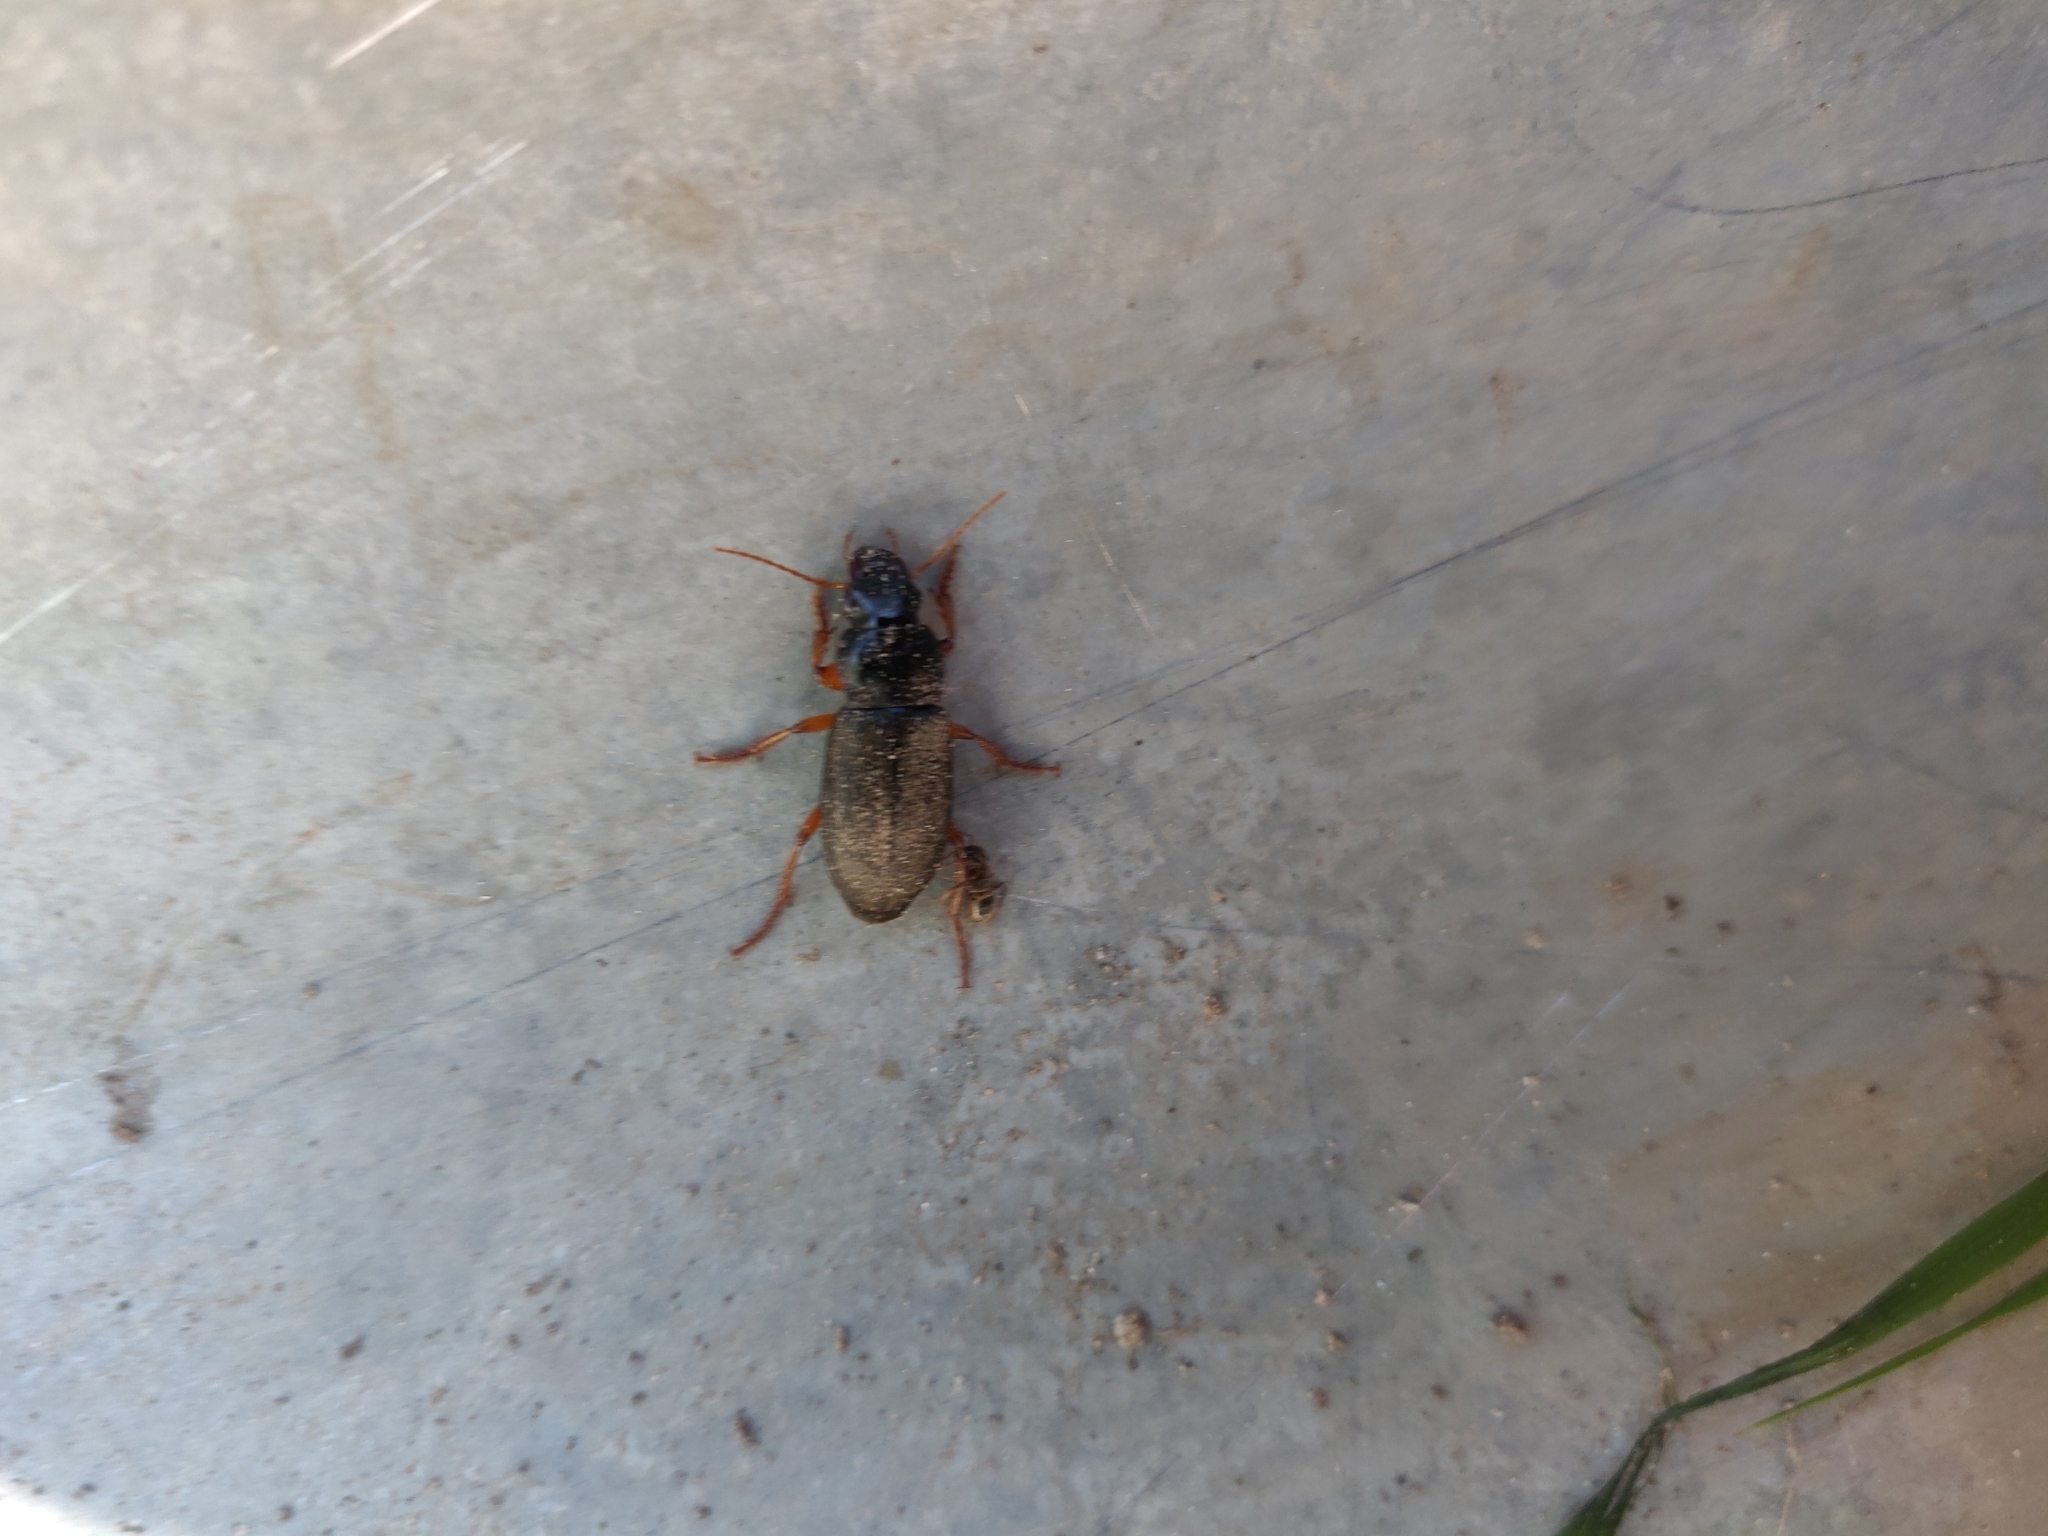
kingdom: Animalia
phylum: Arthropoda
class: Insecta
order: Coleoptera
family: Carabidae
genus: Harpalus
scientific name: Harpalus rufipes
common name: Strawberry harp ground beetle
